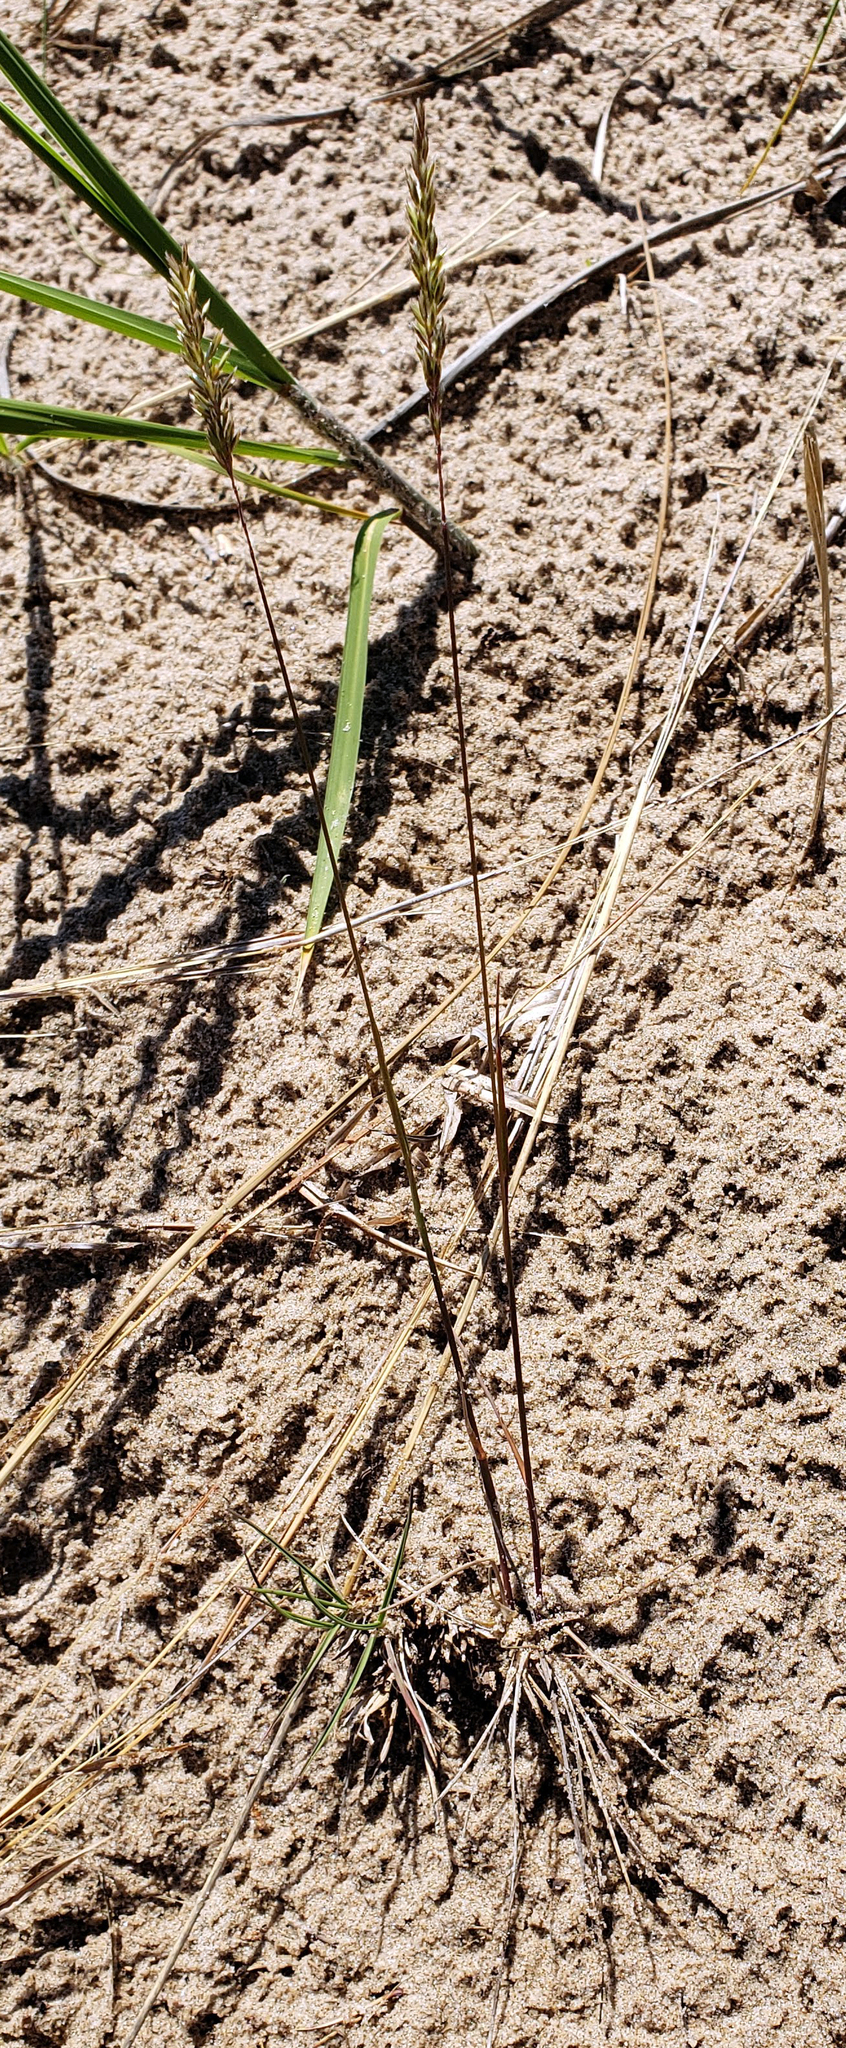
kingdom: Plantae
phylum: Tracheophyta
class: Liliopsida
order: Poales
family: Poaceae
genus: Koeleria
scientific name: Koeleria macrantha
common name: Crested hair-grass
